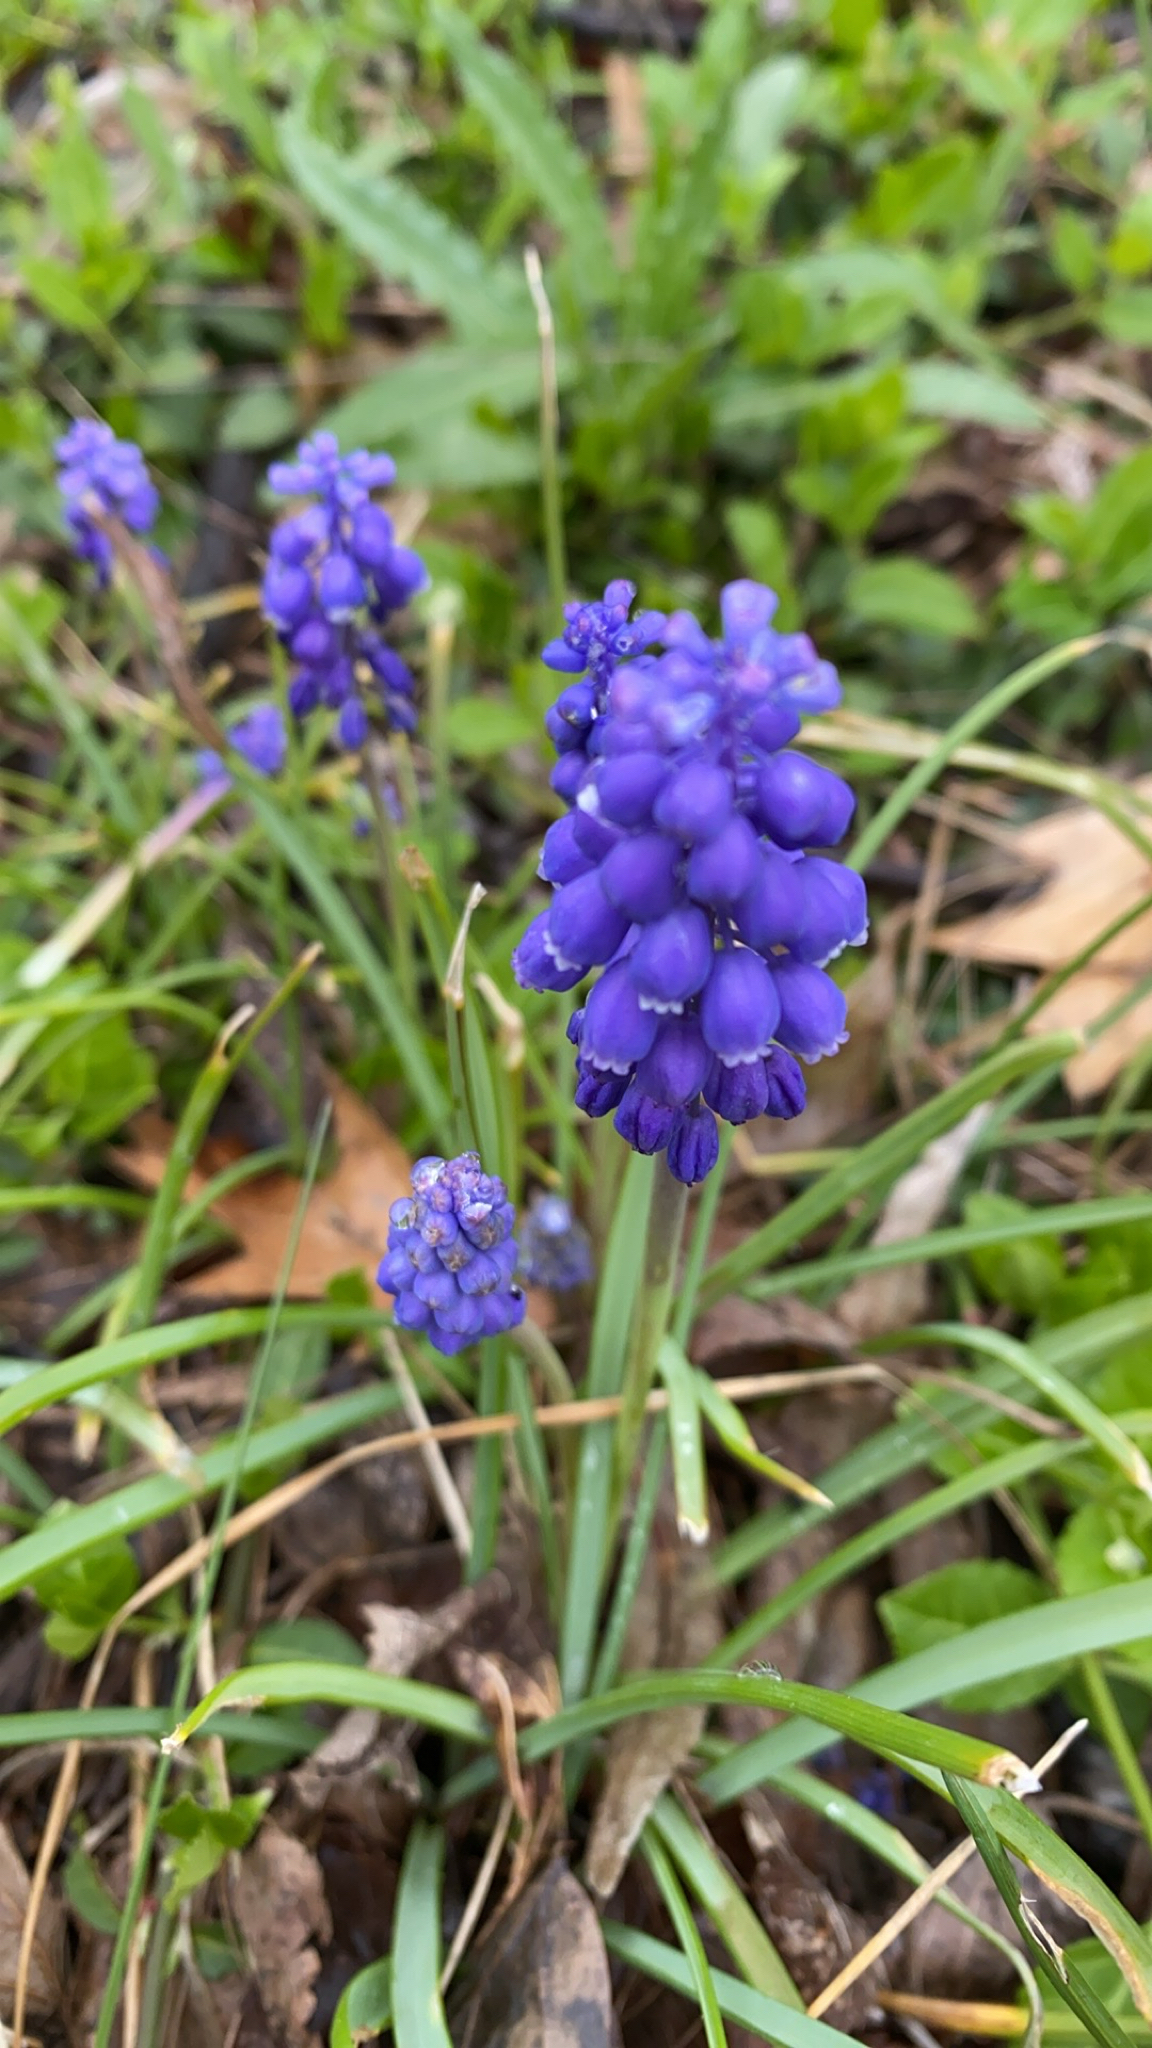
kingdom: Plantae
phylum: Tracheophyta
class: Liliopsida
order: Asparagales
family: Asparagaceae
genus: Muscari
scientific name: Muscari neglectum
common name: Grape-hyacinth
